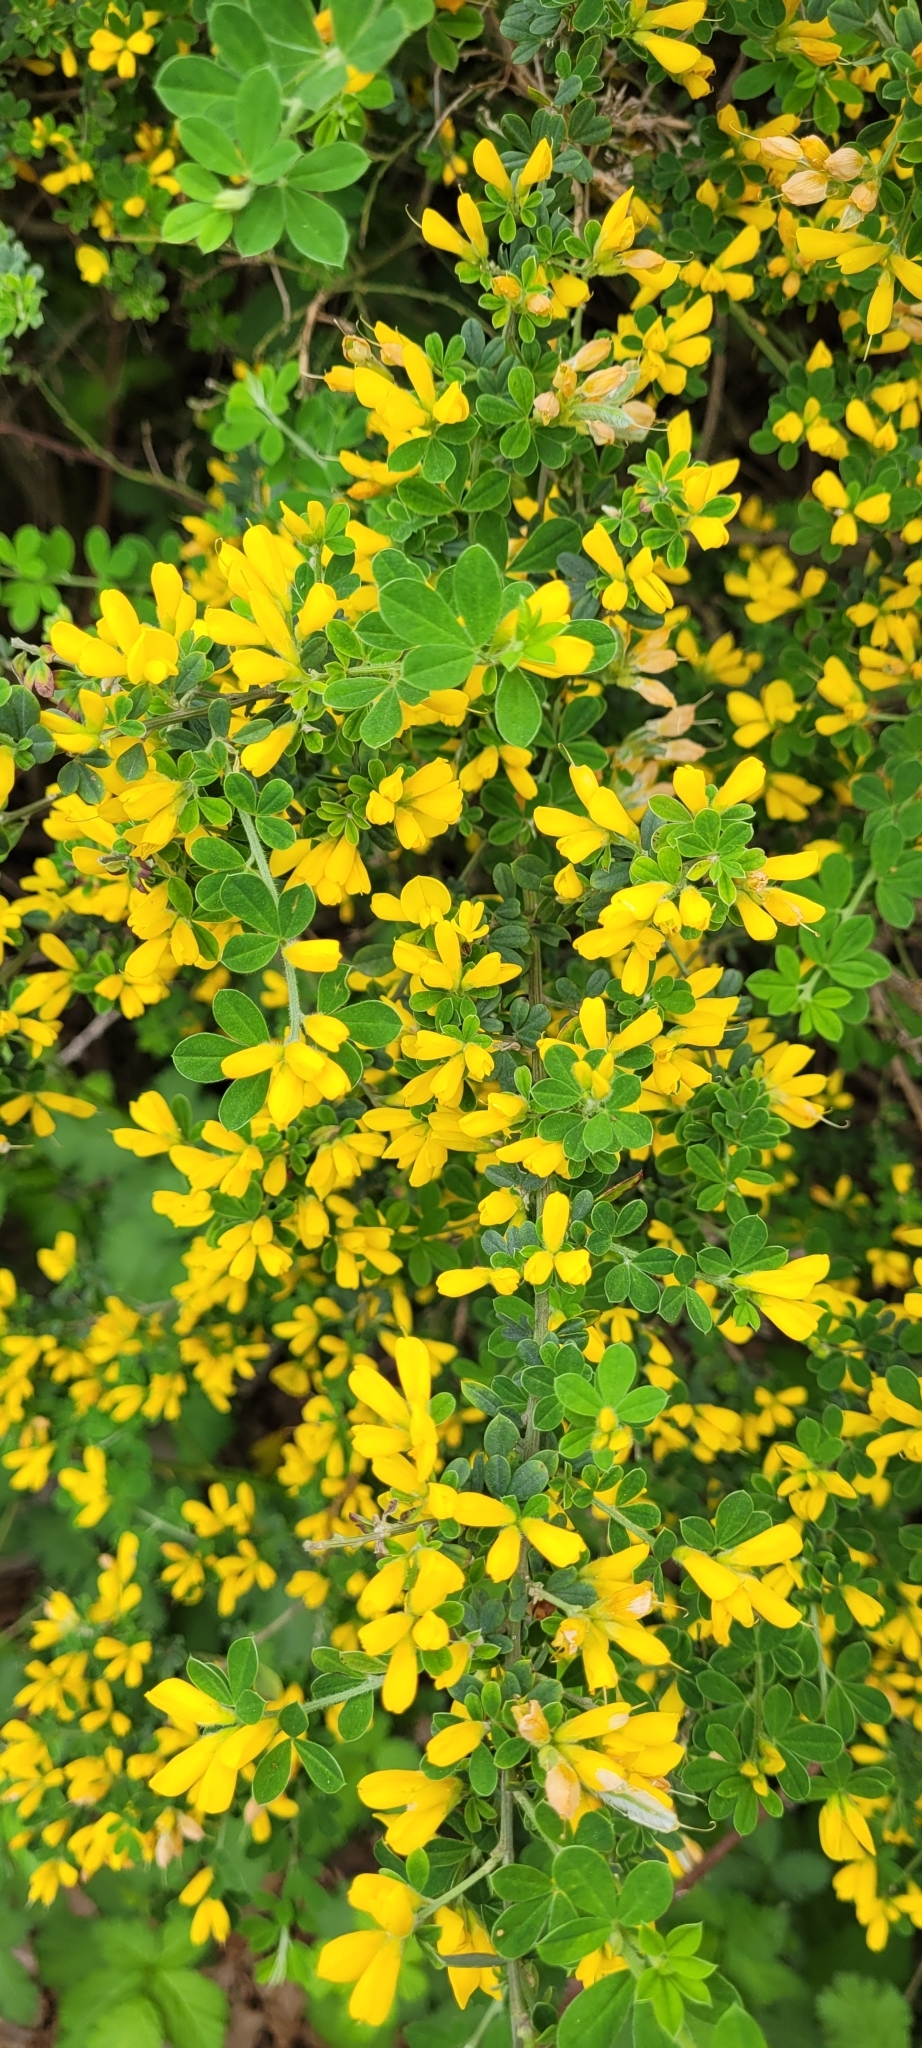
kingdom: Plantae
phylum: Tracheophyta
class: Magnoliopsida
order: Fabales
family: Fabaceae
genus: Genista
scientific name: Genista monspessulana
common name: Montpellier broom
